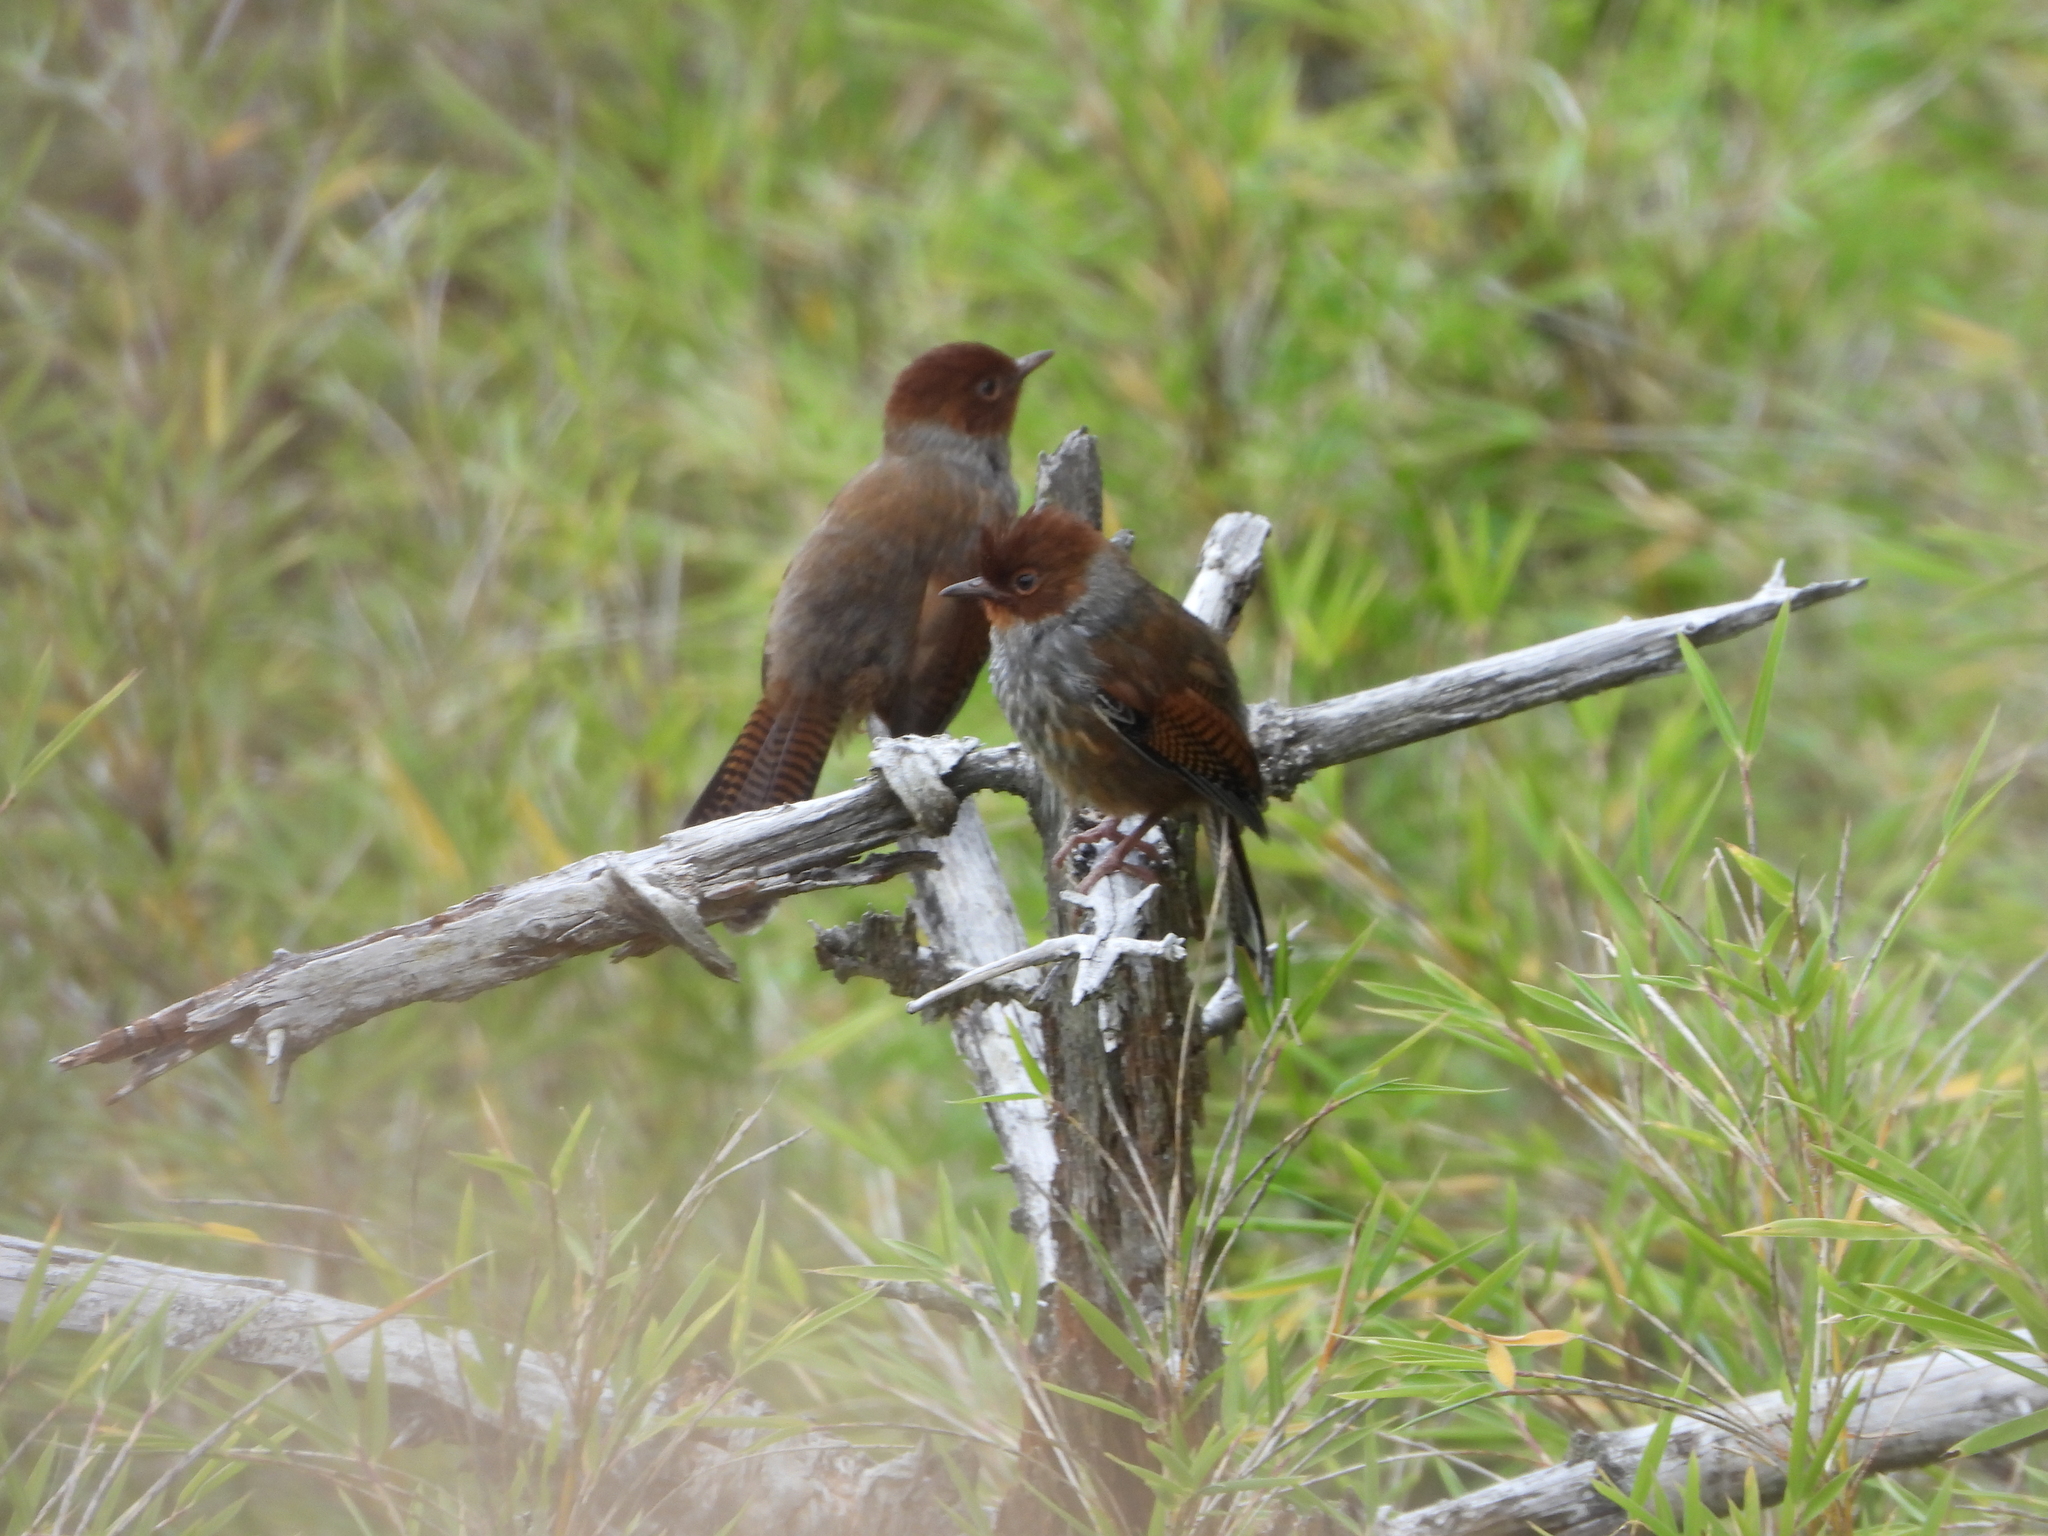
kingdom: Animalia
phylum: Chordata
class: Aves
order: Passeriformes
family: Leiothrichidae
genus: Actinodura
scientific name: Actinodura morrisoniana
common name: Taiwan barwing
